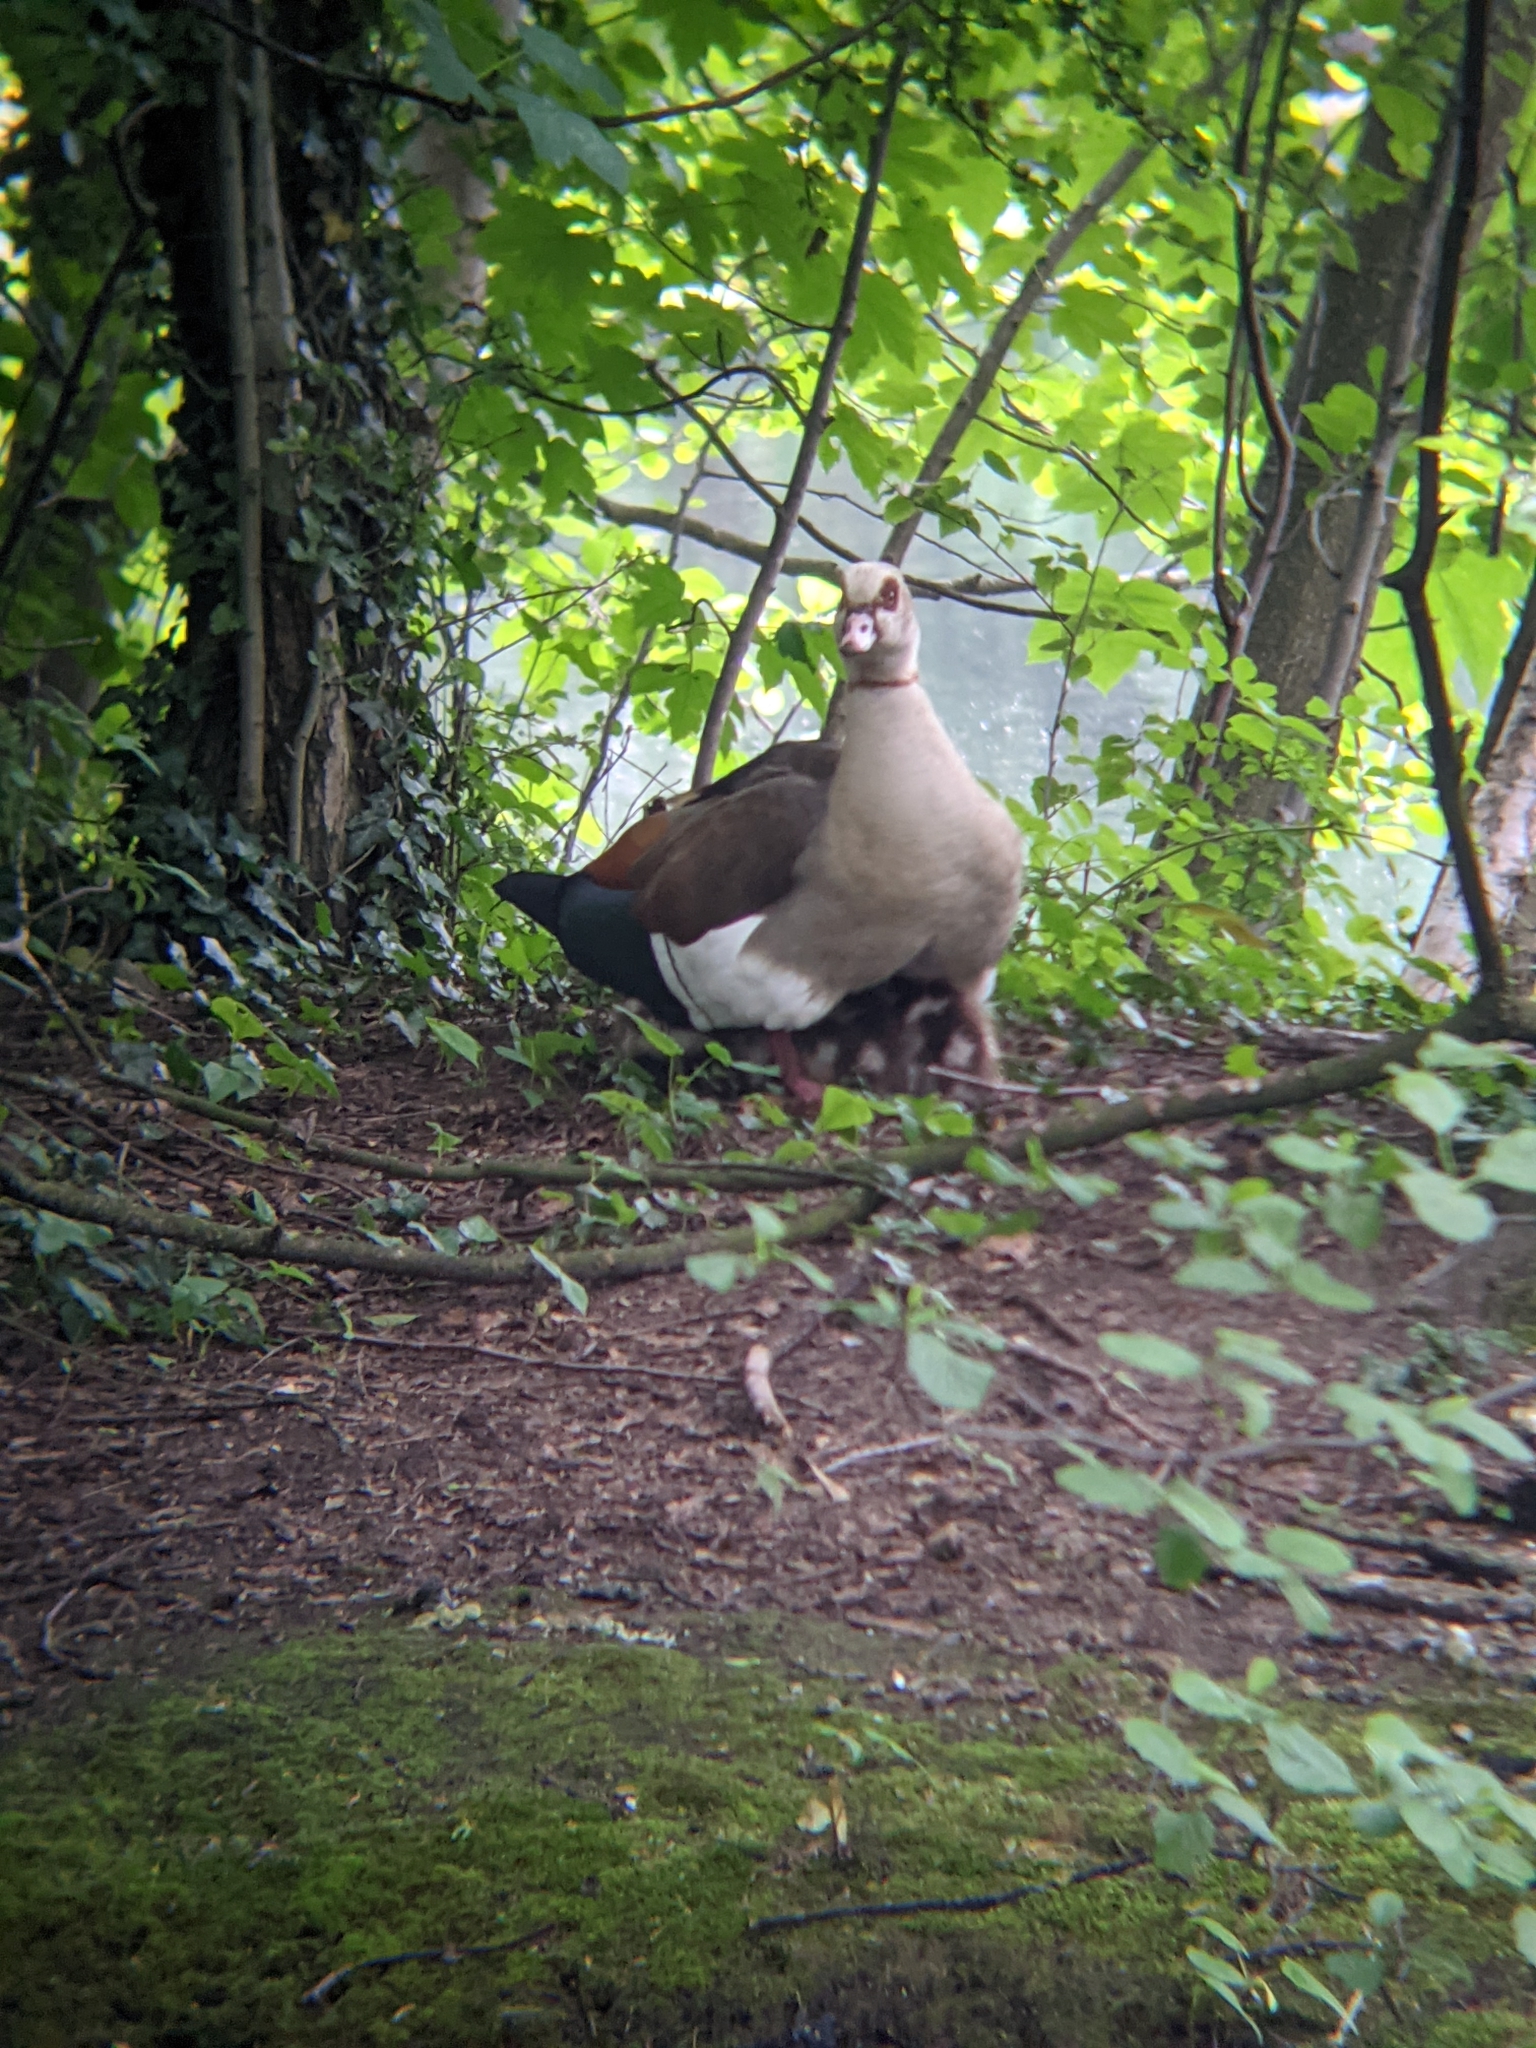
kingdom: Animalia
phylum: Chordata
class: Aves
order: Anseriformes
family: Anatidae
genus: Alopochen
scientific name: Alopochen aegyptiaca
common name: Egyptian goose
